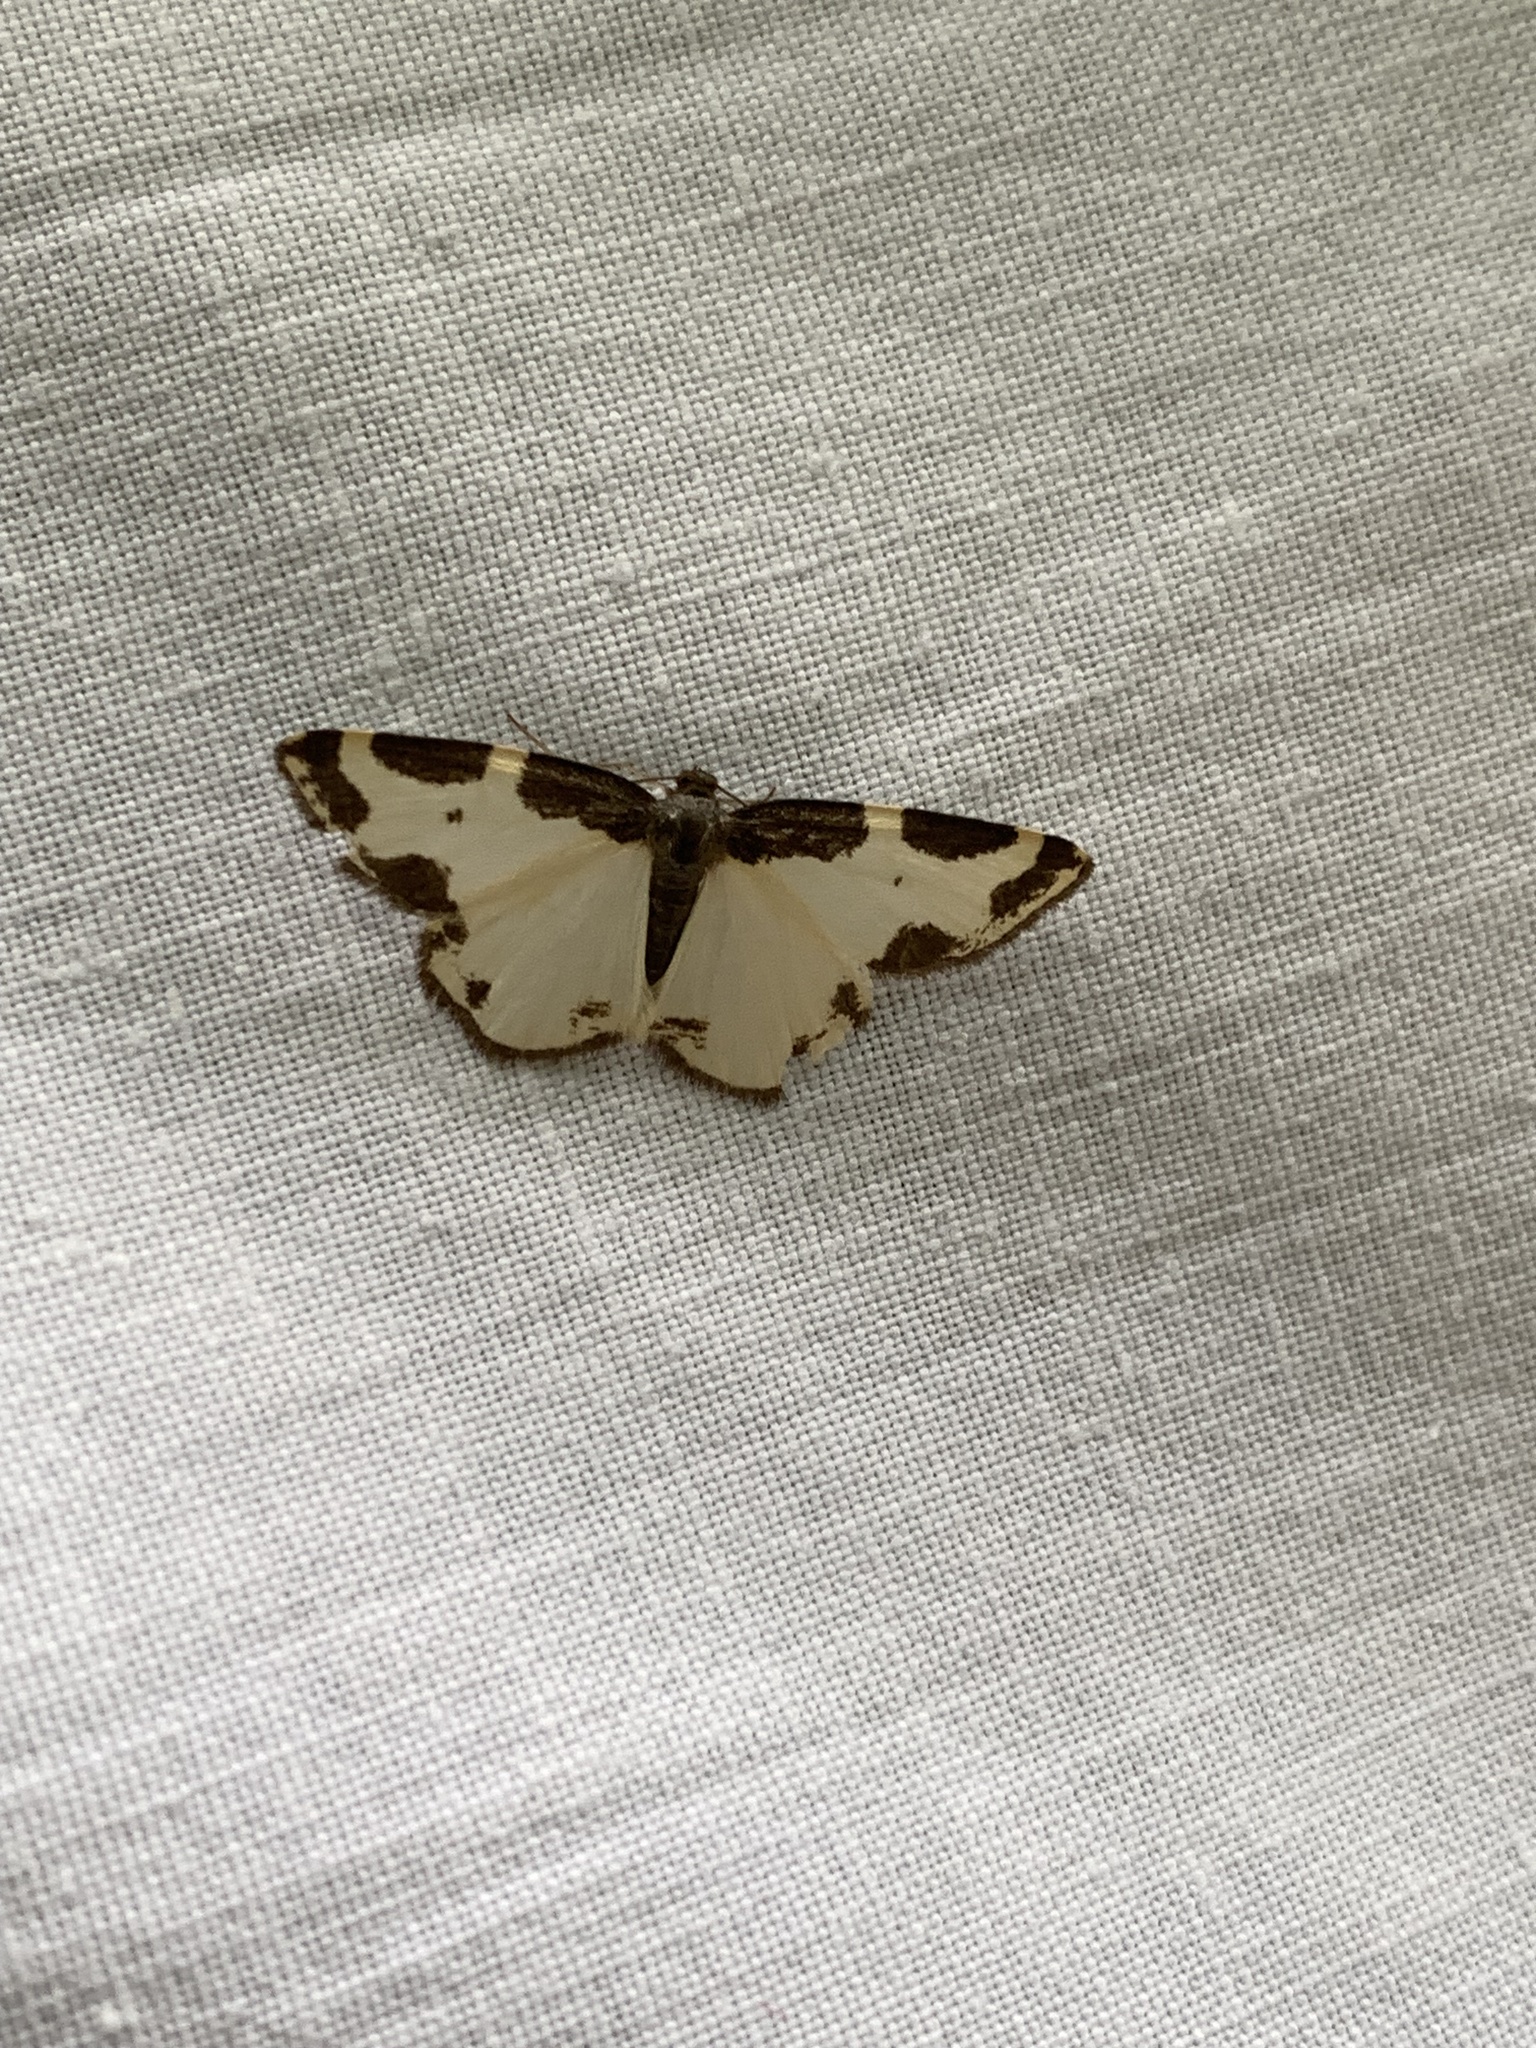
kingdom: Animalia
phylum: Arthropoda
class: Insecta
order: Lepidoptera
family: Geometridae
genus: Lomaspilis
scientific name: Lomaspilis marginata
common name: Clouded border
